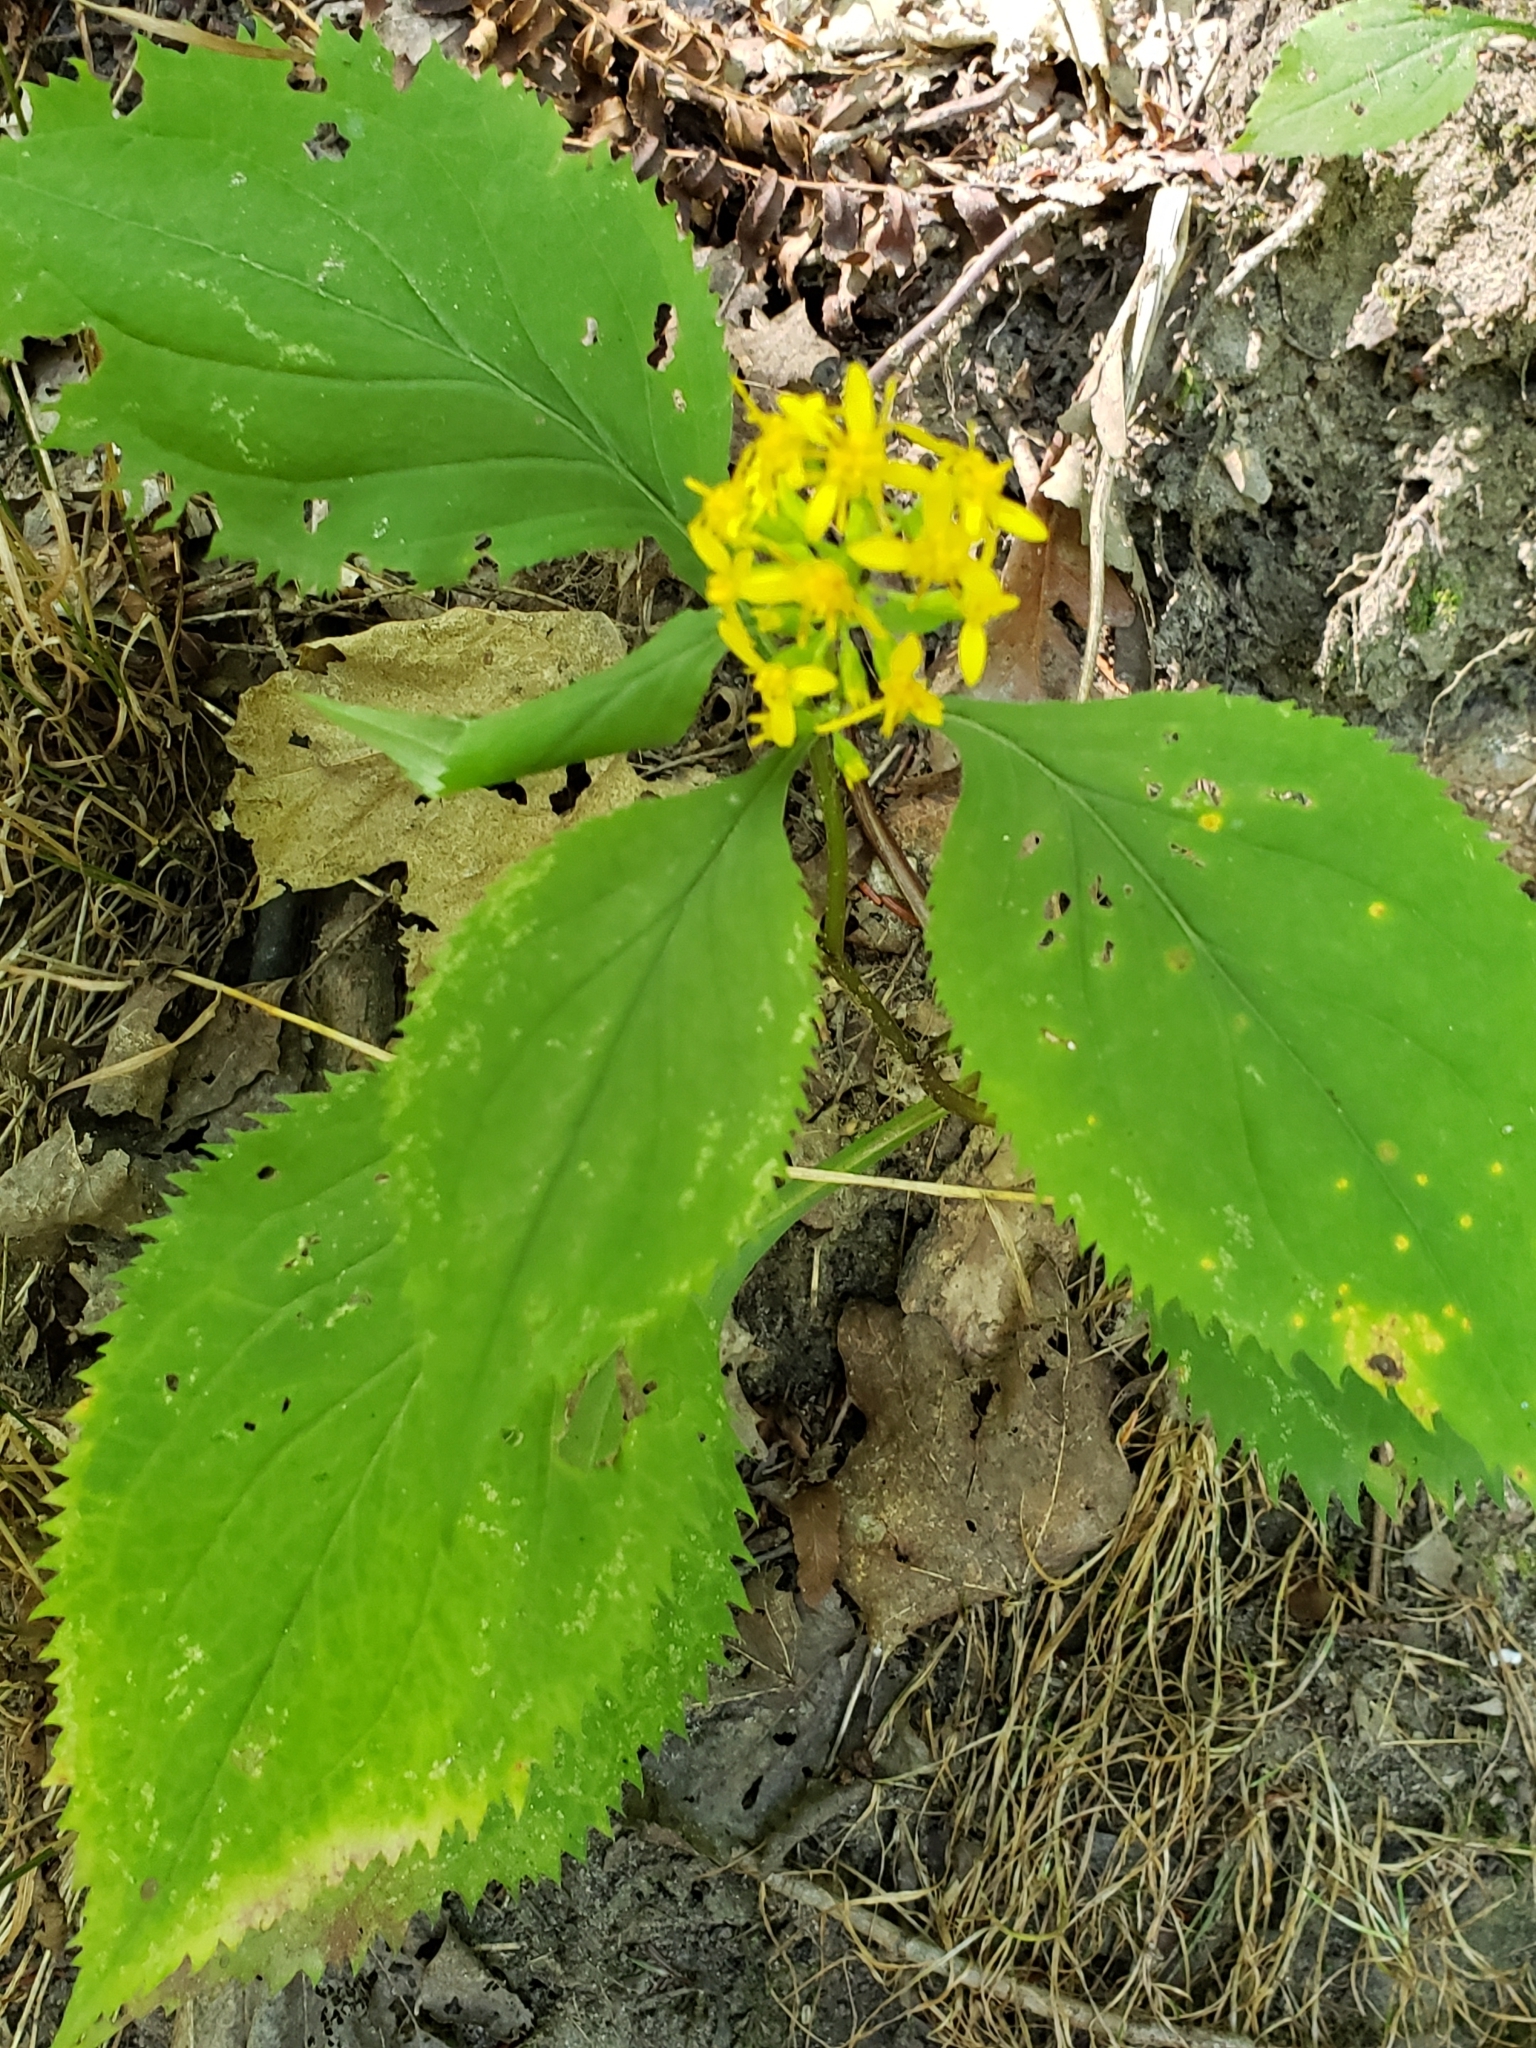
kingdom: Plantae
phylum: Tracheophyta
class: Magnoliopsida
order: Asterales
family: Asteraceae
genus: Solidago
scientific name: Solidago flexicaulis
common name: Zig-zag goldenrod
